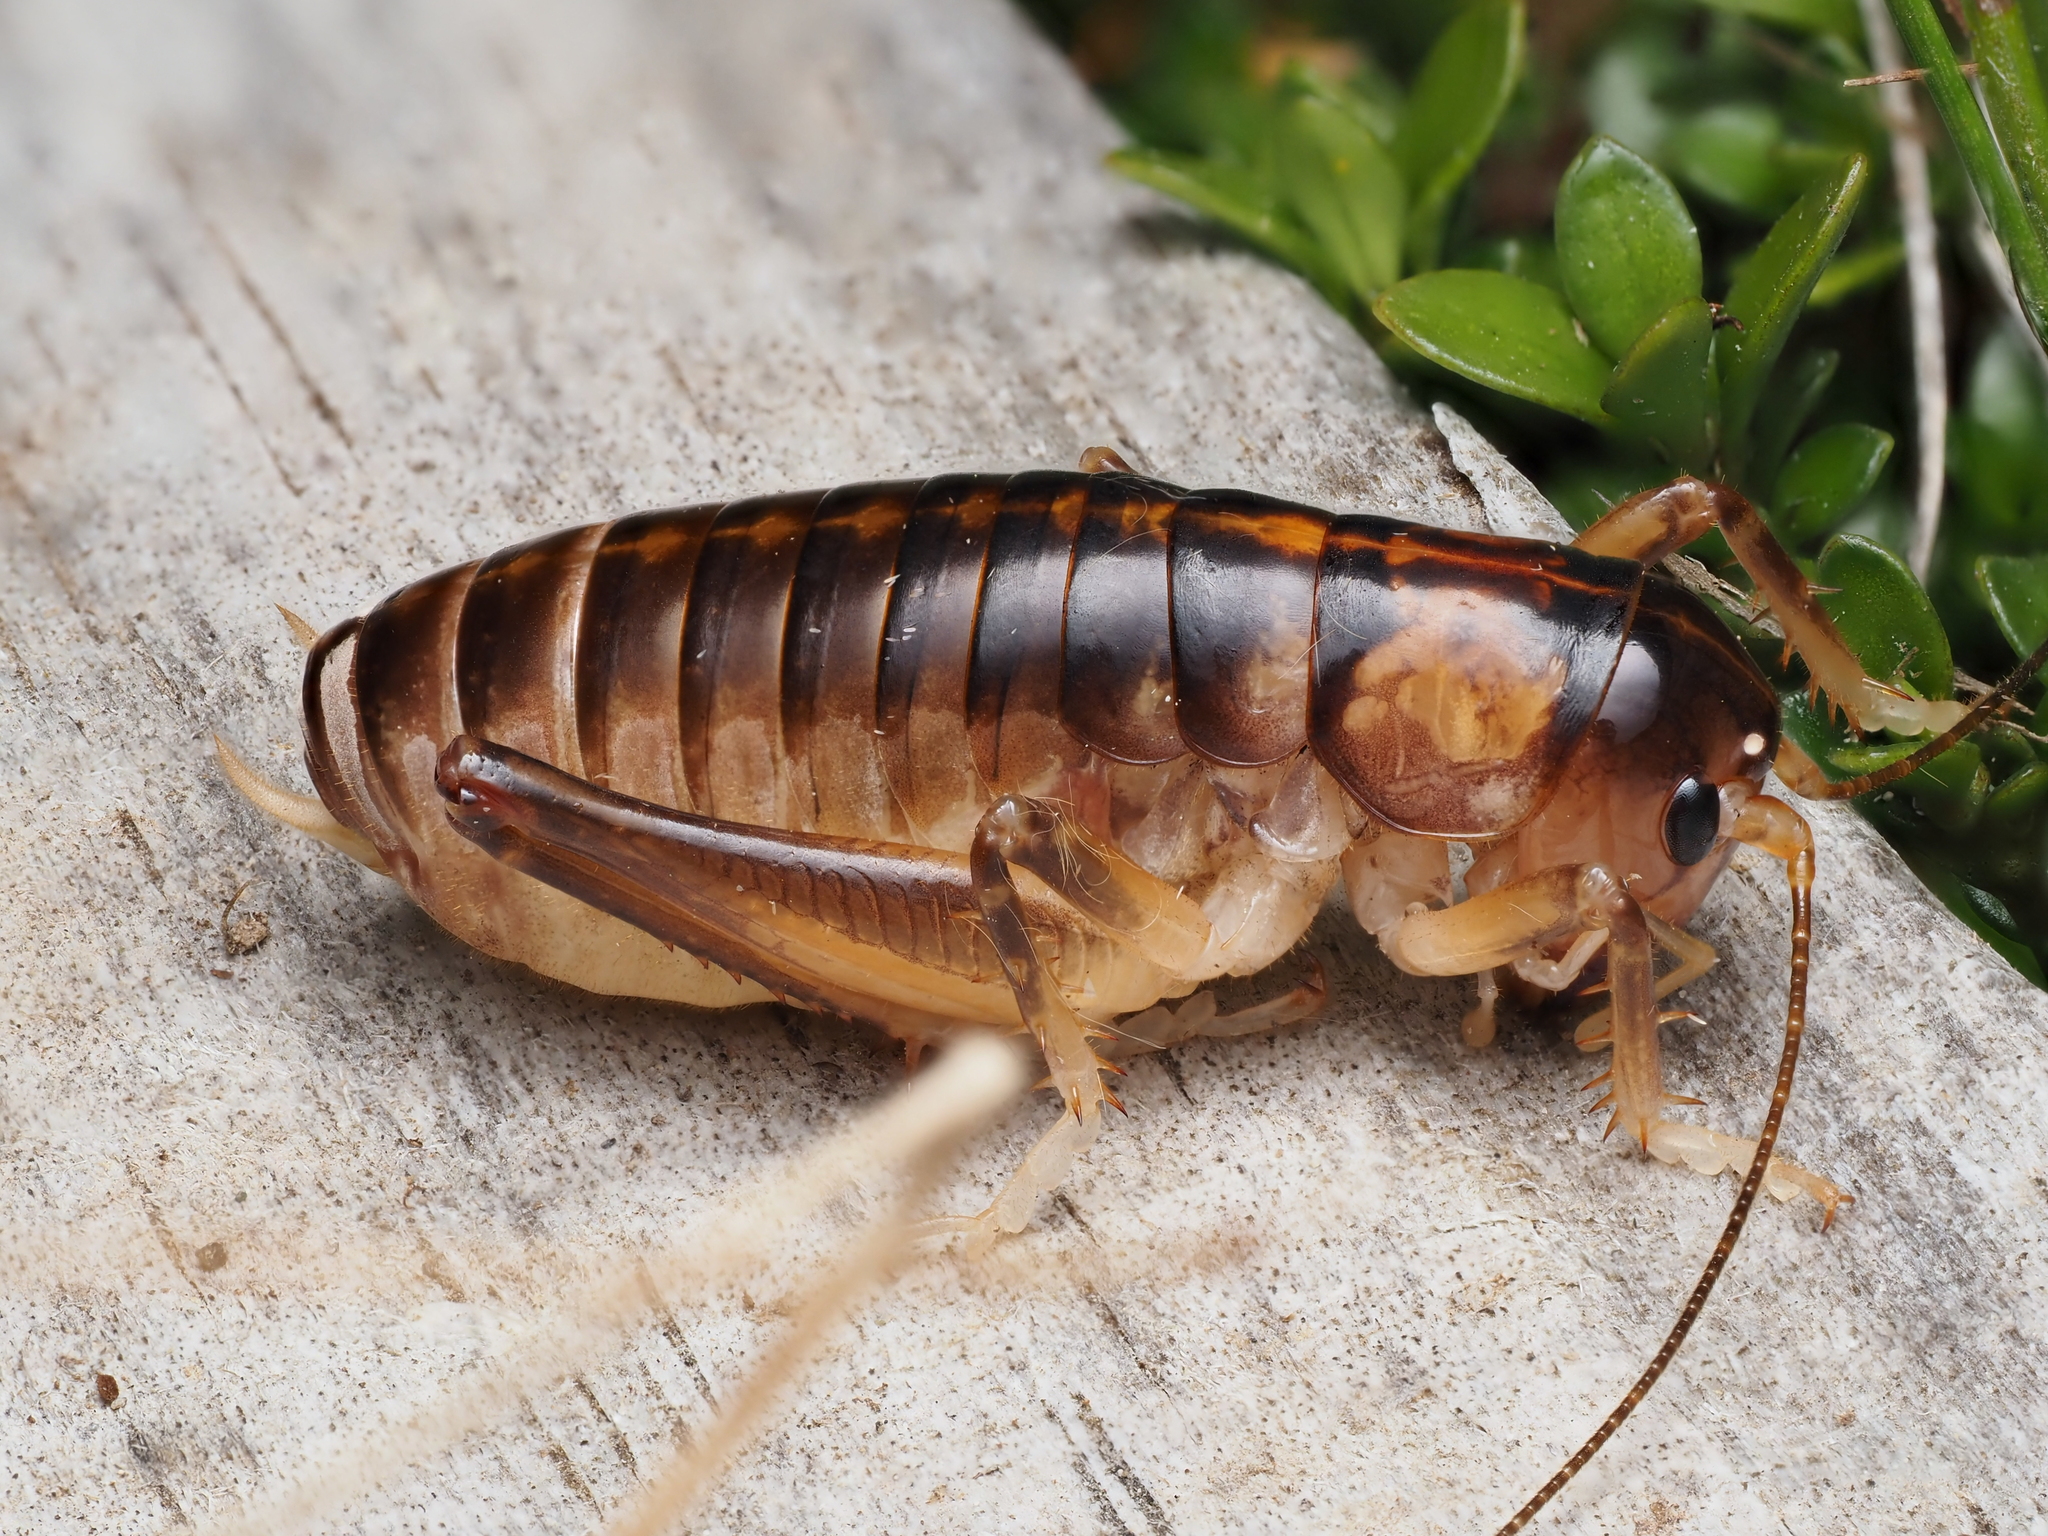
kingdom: Animalia
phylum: Arthropoda
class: Insecta
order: Orthoptera
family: Anostostomatidae
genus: Hemiandrus
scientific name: Hemiandrus pallitarsis
